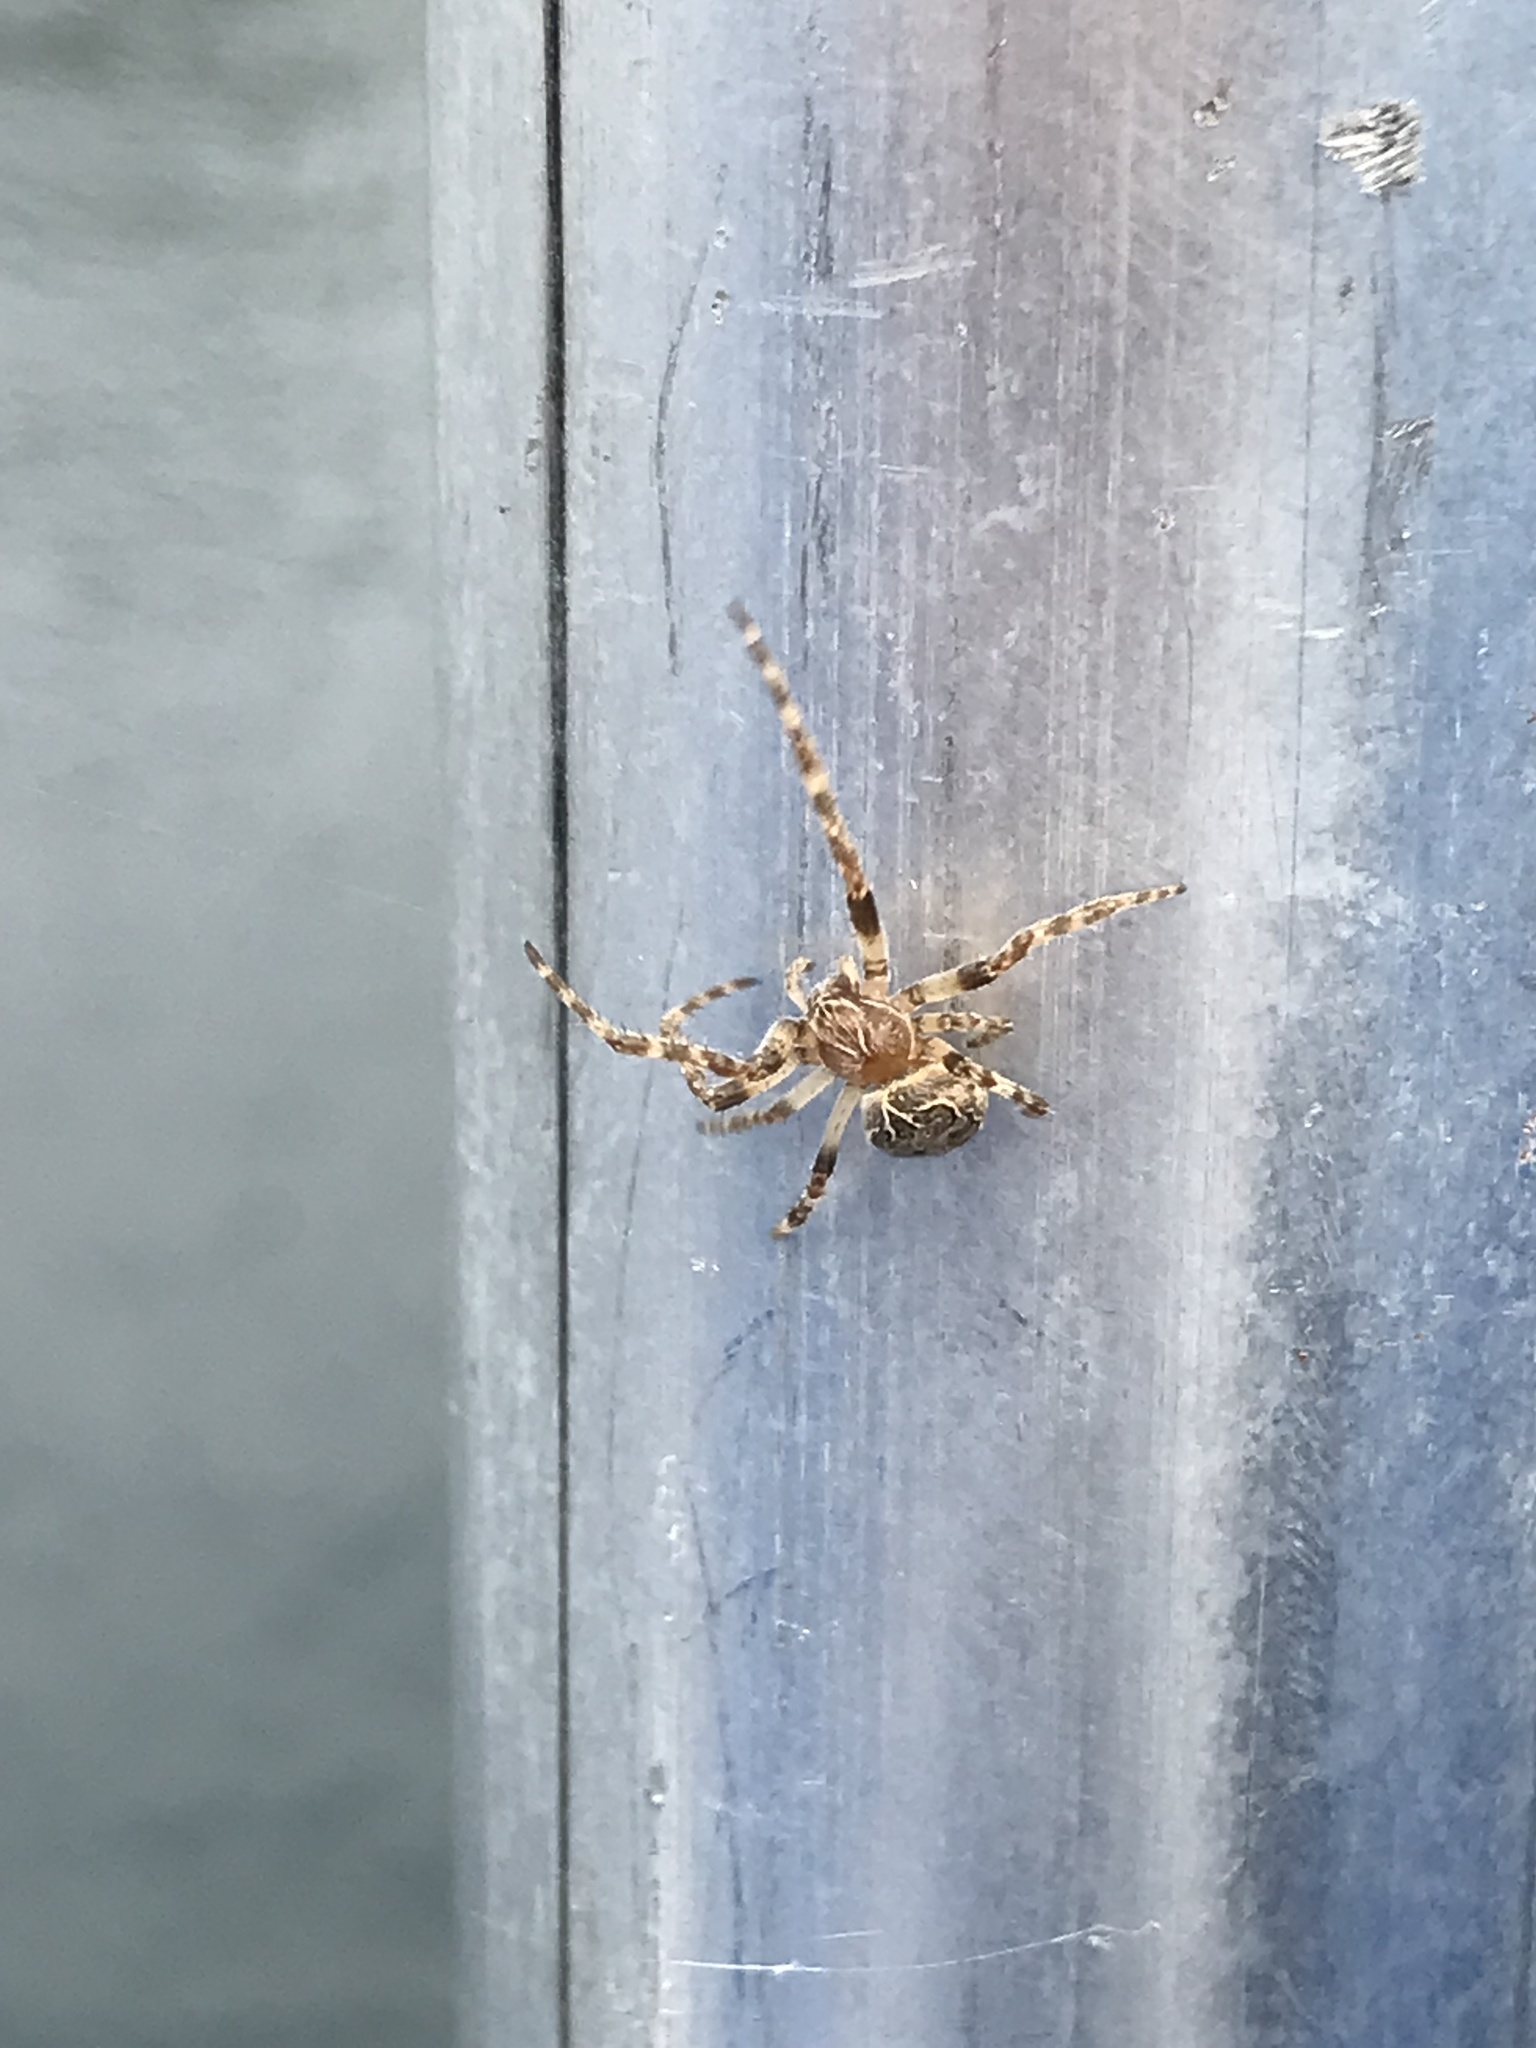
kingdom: Animalia
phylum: Arthropoda
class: Arachnida
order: Araneae
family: Araneidae
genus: Larinioides
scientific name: Larinioides sclopetarius
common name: Bridge orbweaver
